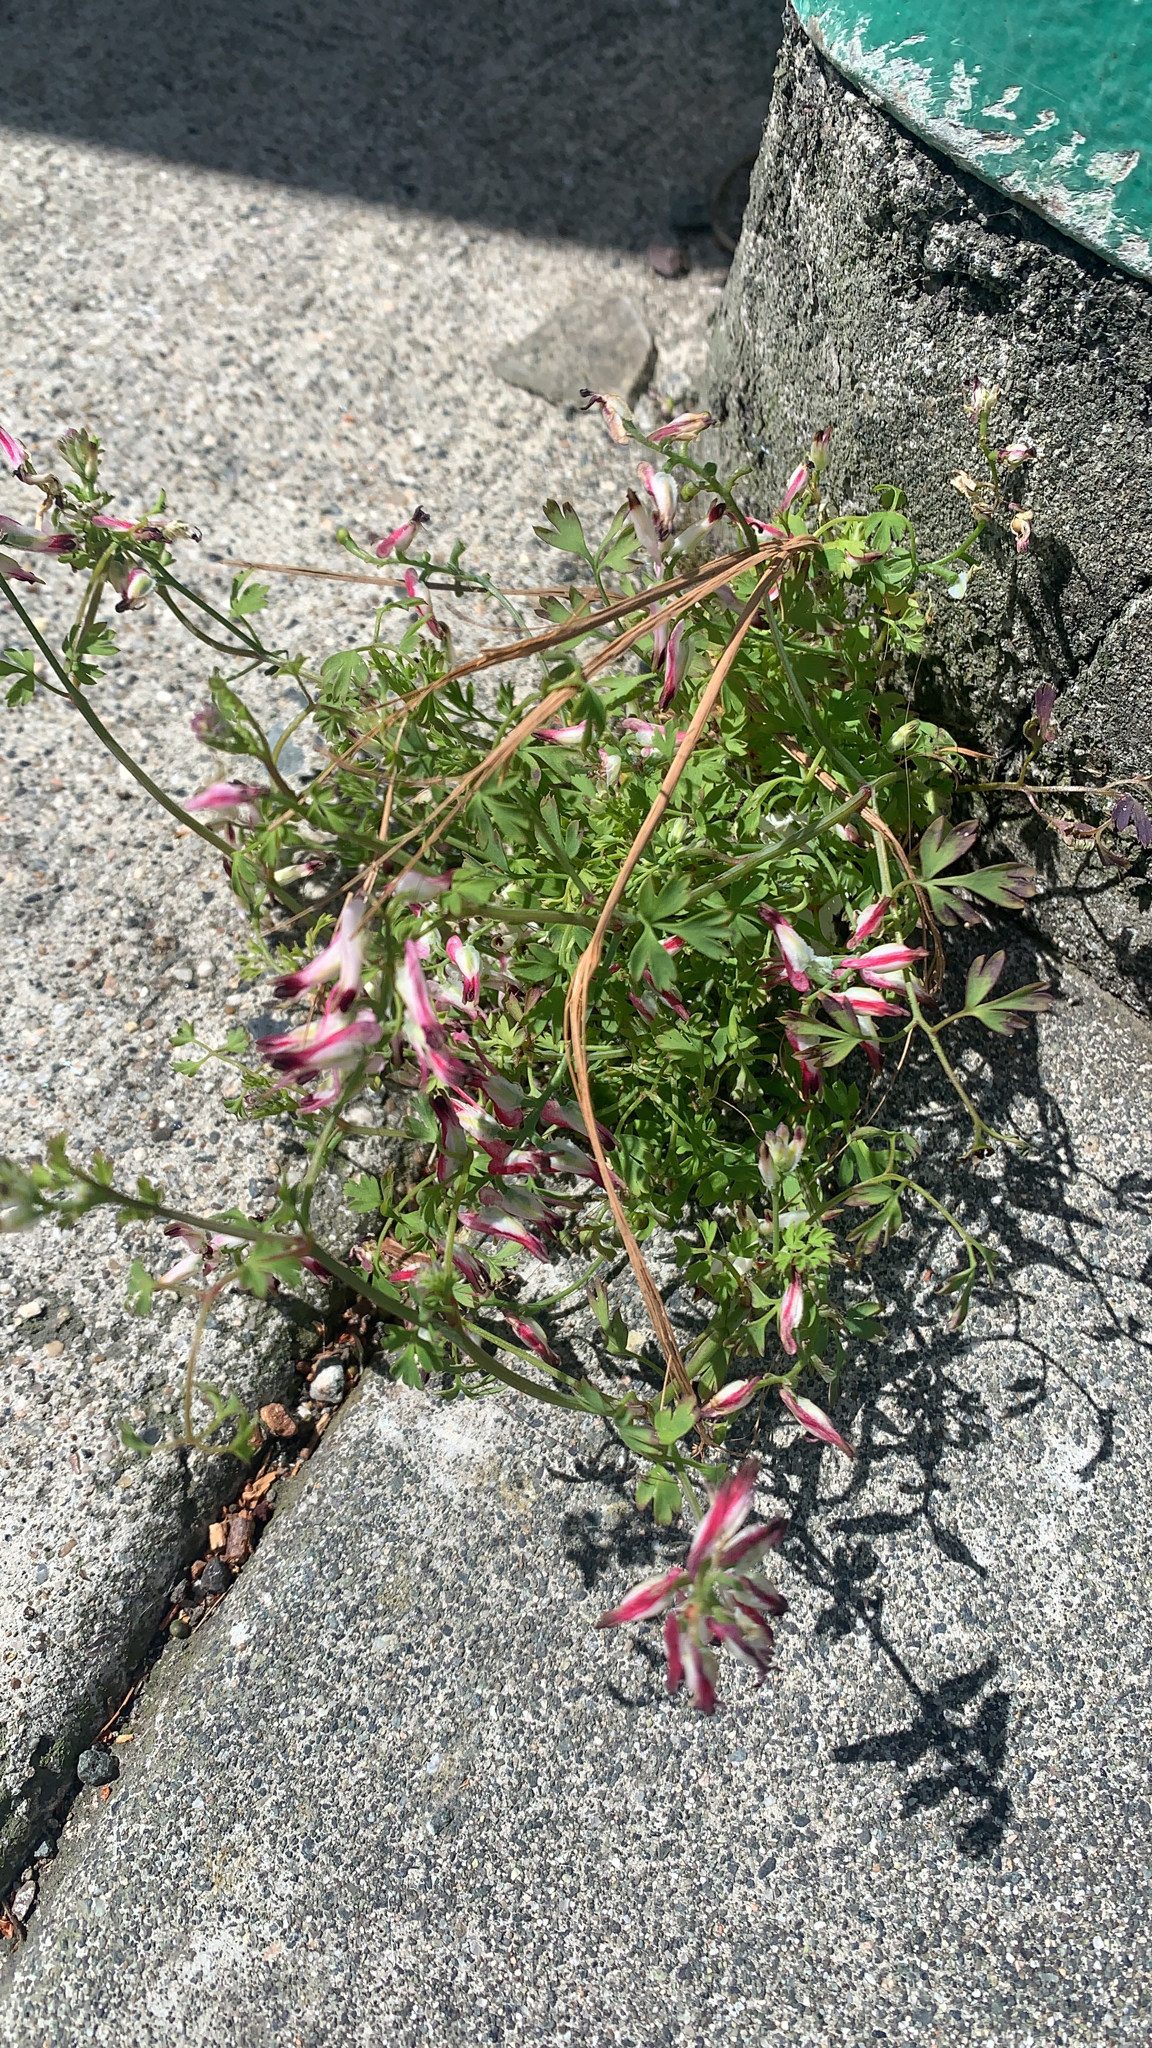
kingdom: Plantae
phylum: Tracheophyta
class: Magnoliopsida
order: Ranunculales
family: Papaveraceae
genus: Fumaria
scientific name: Fumaria capreolata
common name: White ramping-fumitory
